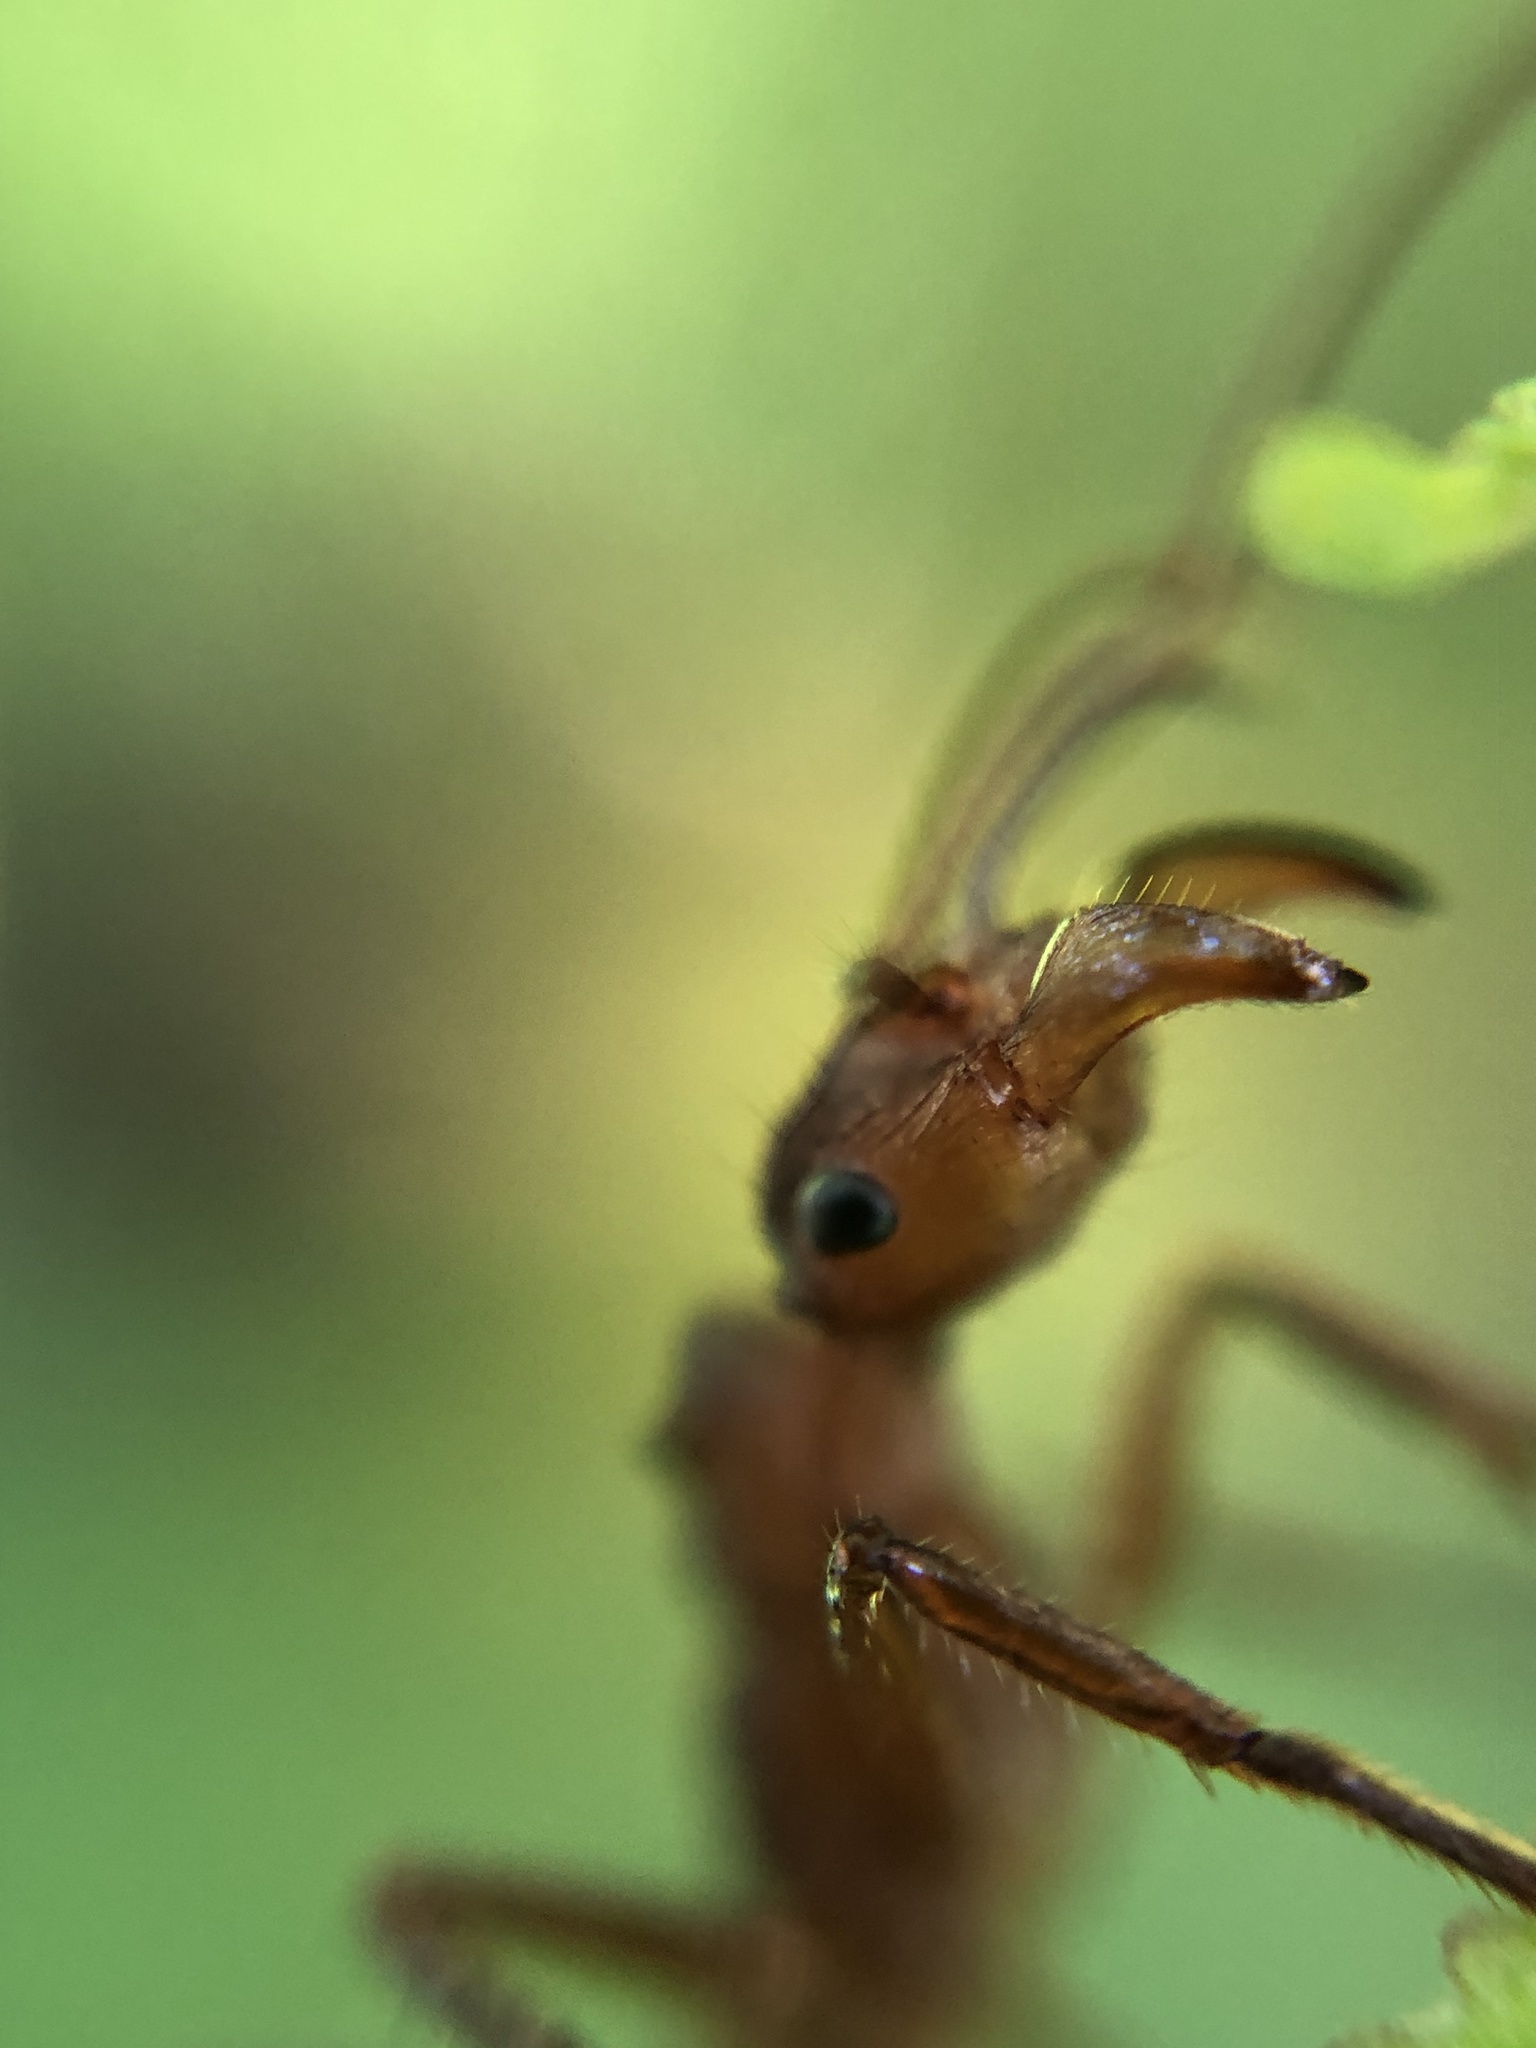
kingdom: Animalia
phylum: Arthropoda
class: Insecta
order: Hymenoptera
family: Formicidae
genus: Ectatomma
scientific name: Ectatomma tuberculatum
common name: Ant
